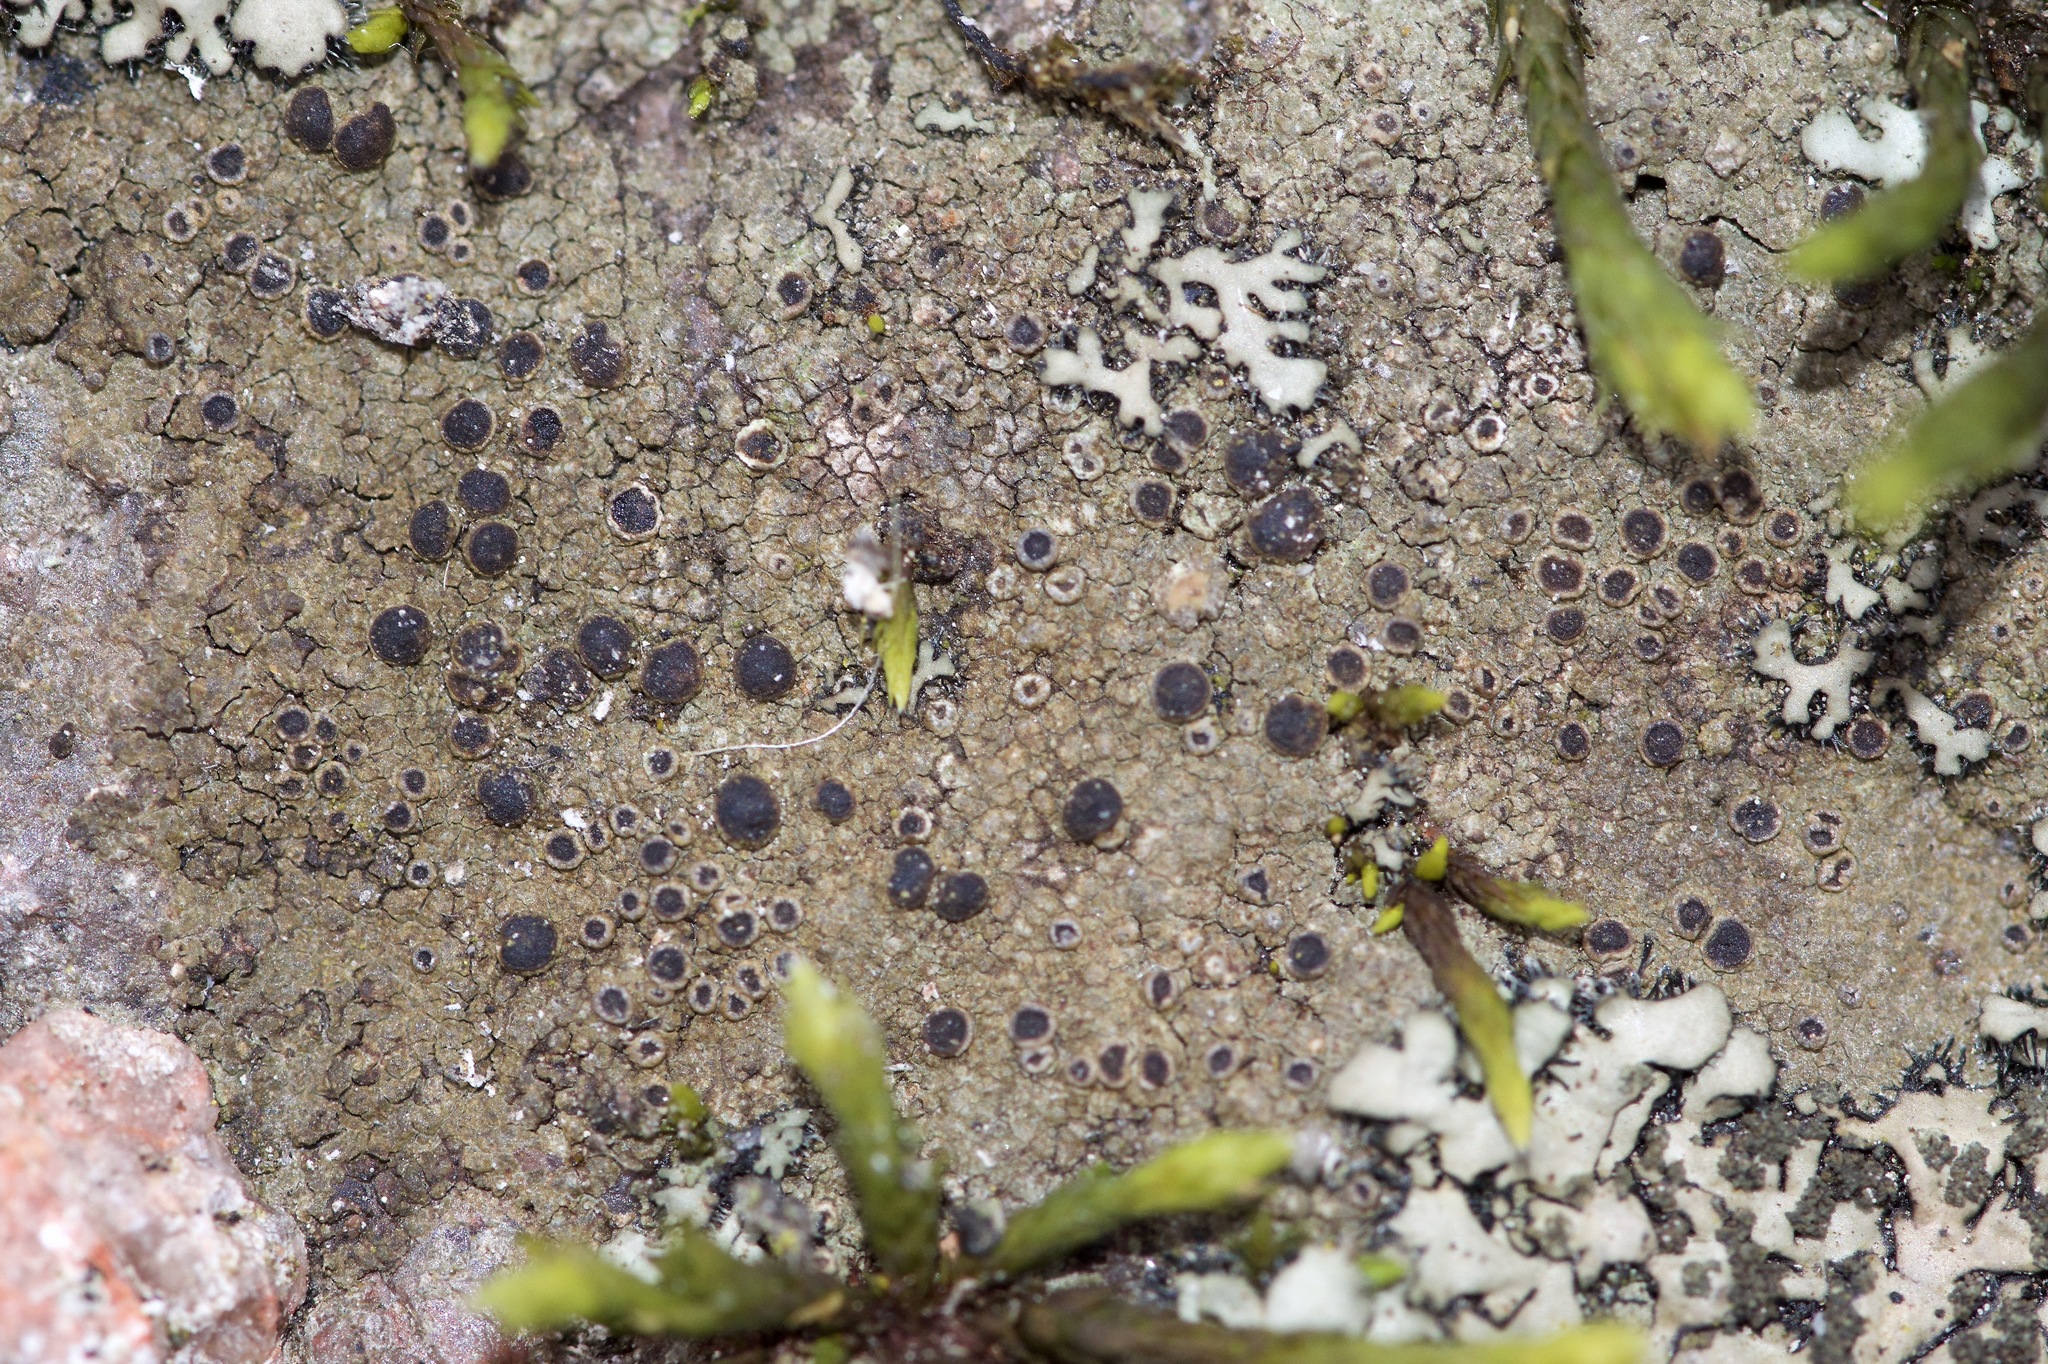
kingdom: Fungi
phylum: Ascomycota
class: Lecanoromycetes
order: Caliciales
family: Physciaceae
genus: Rinodina
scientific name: Rinodina tephraspis
